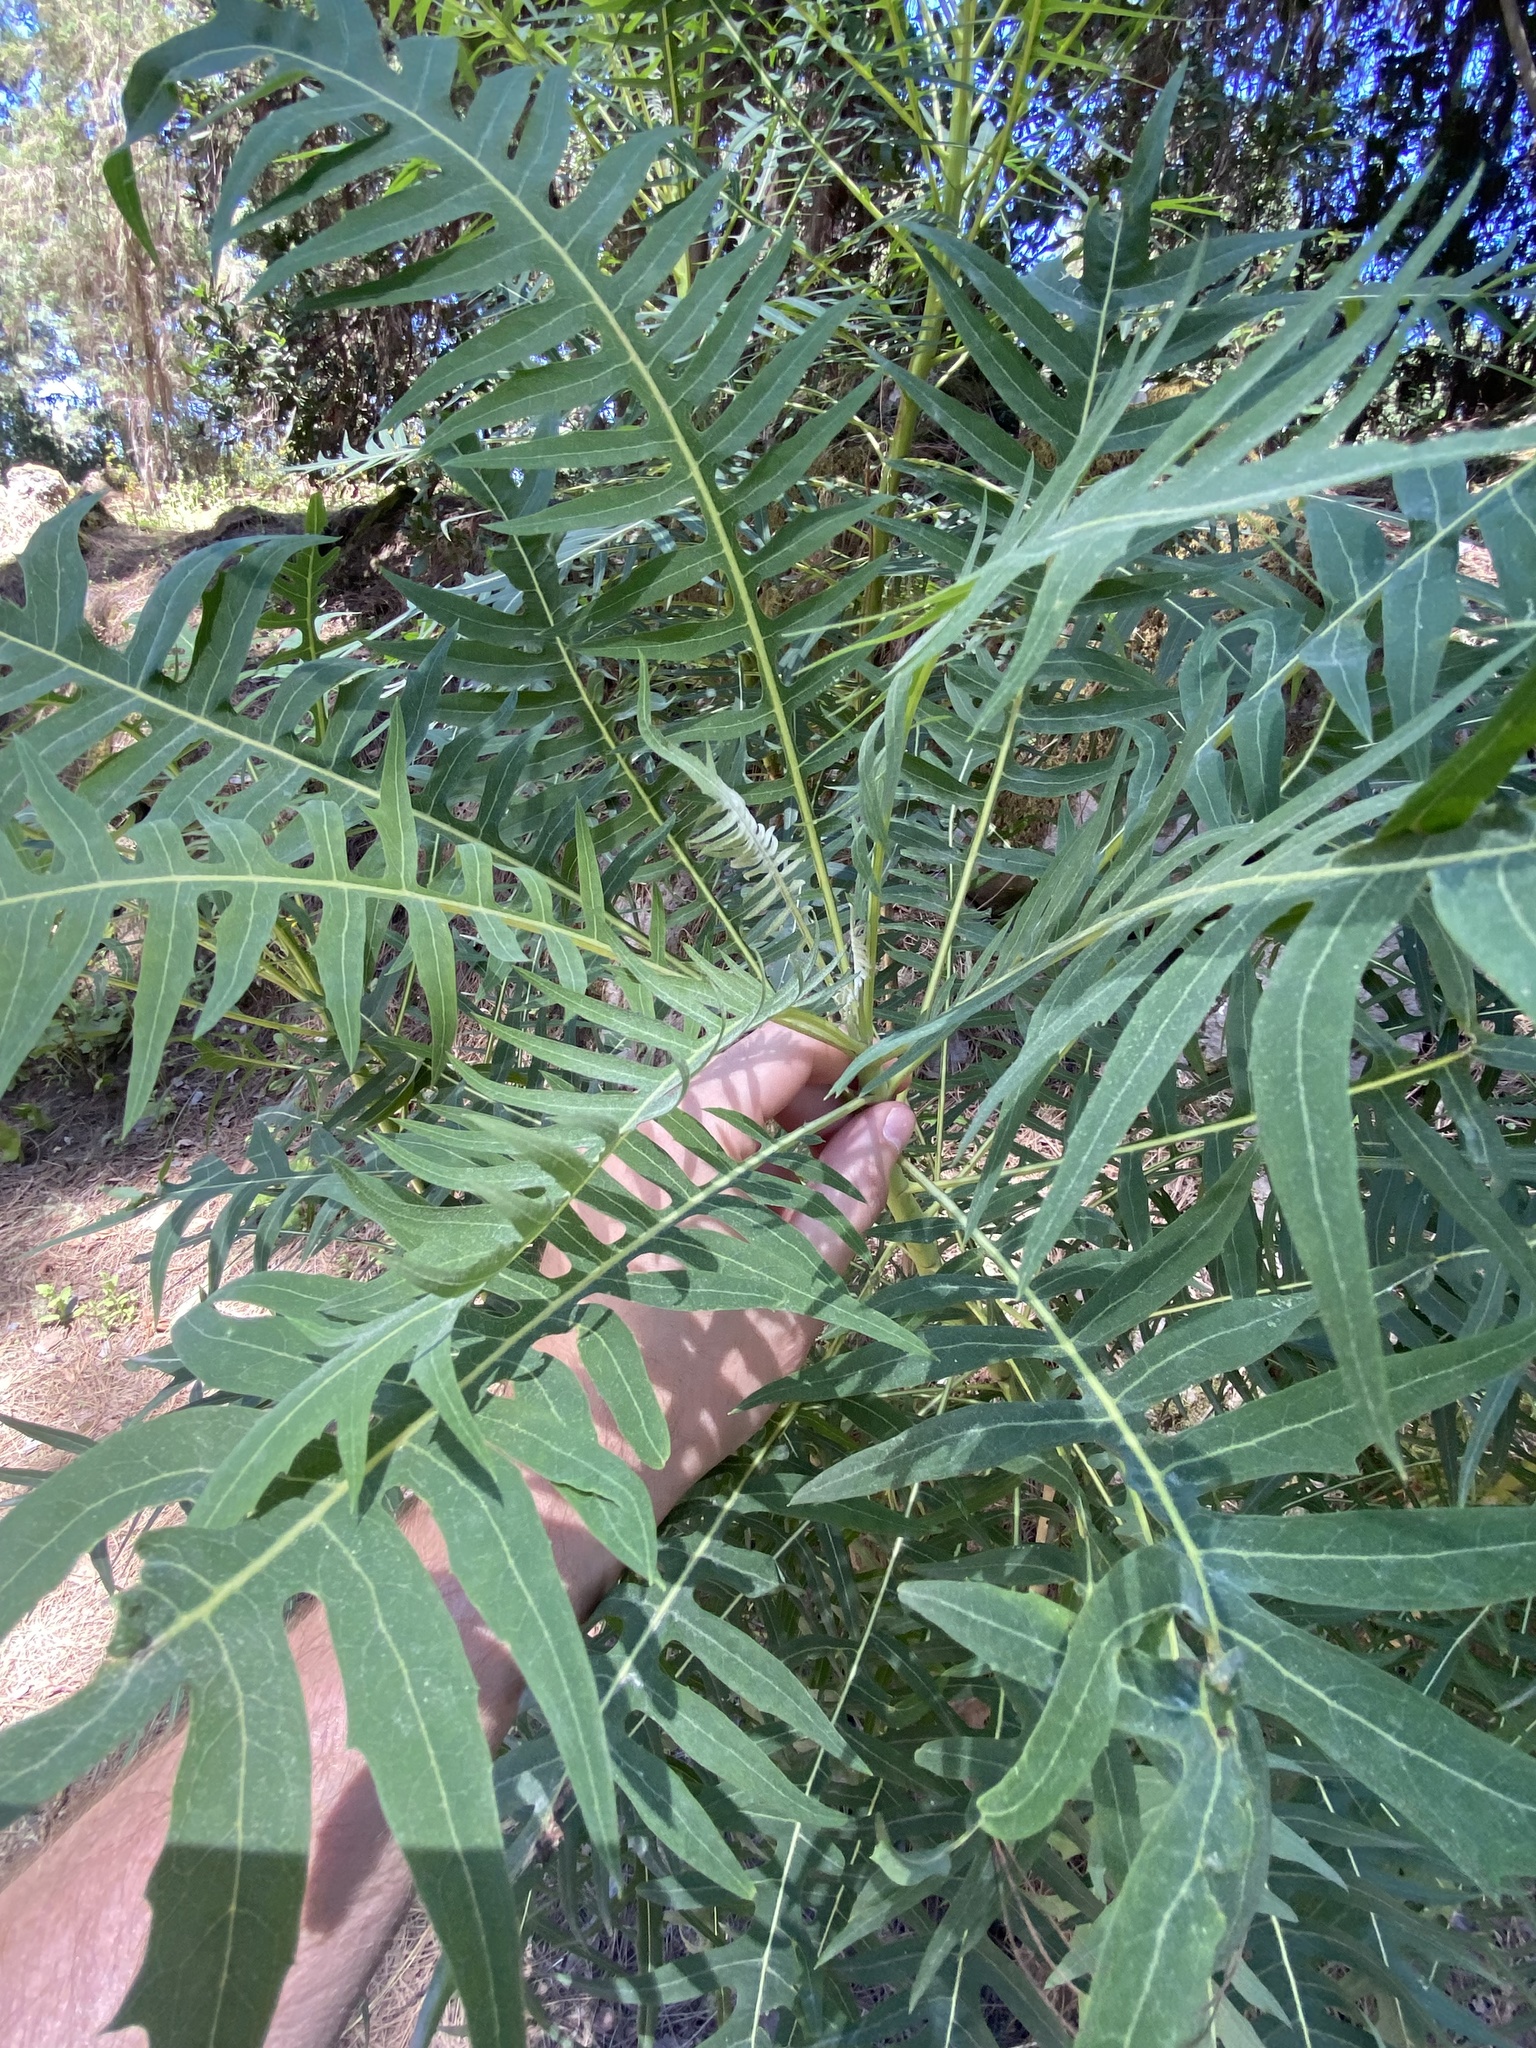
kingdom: Plantae
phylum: Tracheophyta
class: Magnoliopsida
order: Asterales
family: Asteraceae
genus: Sonchus
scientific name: Sonchus canariensis
